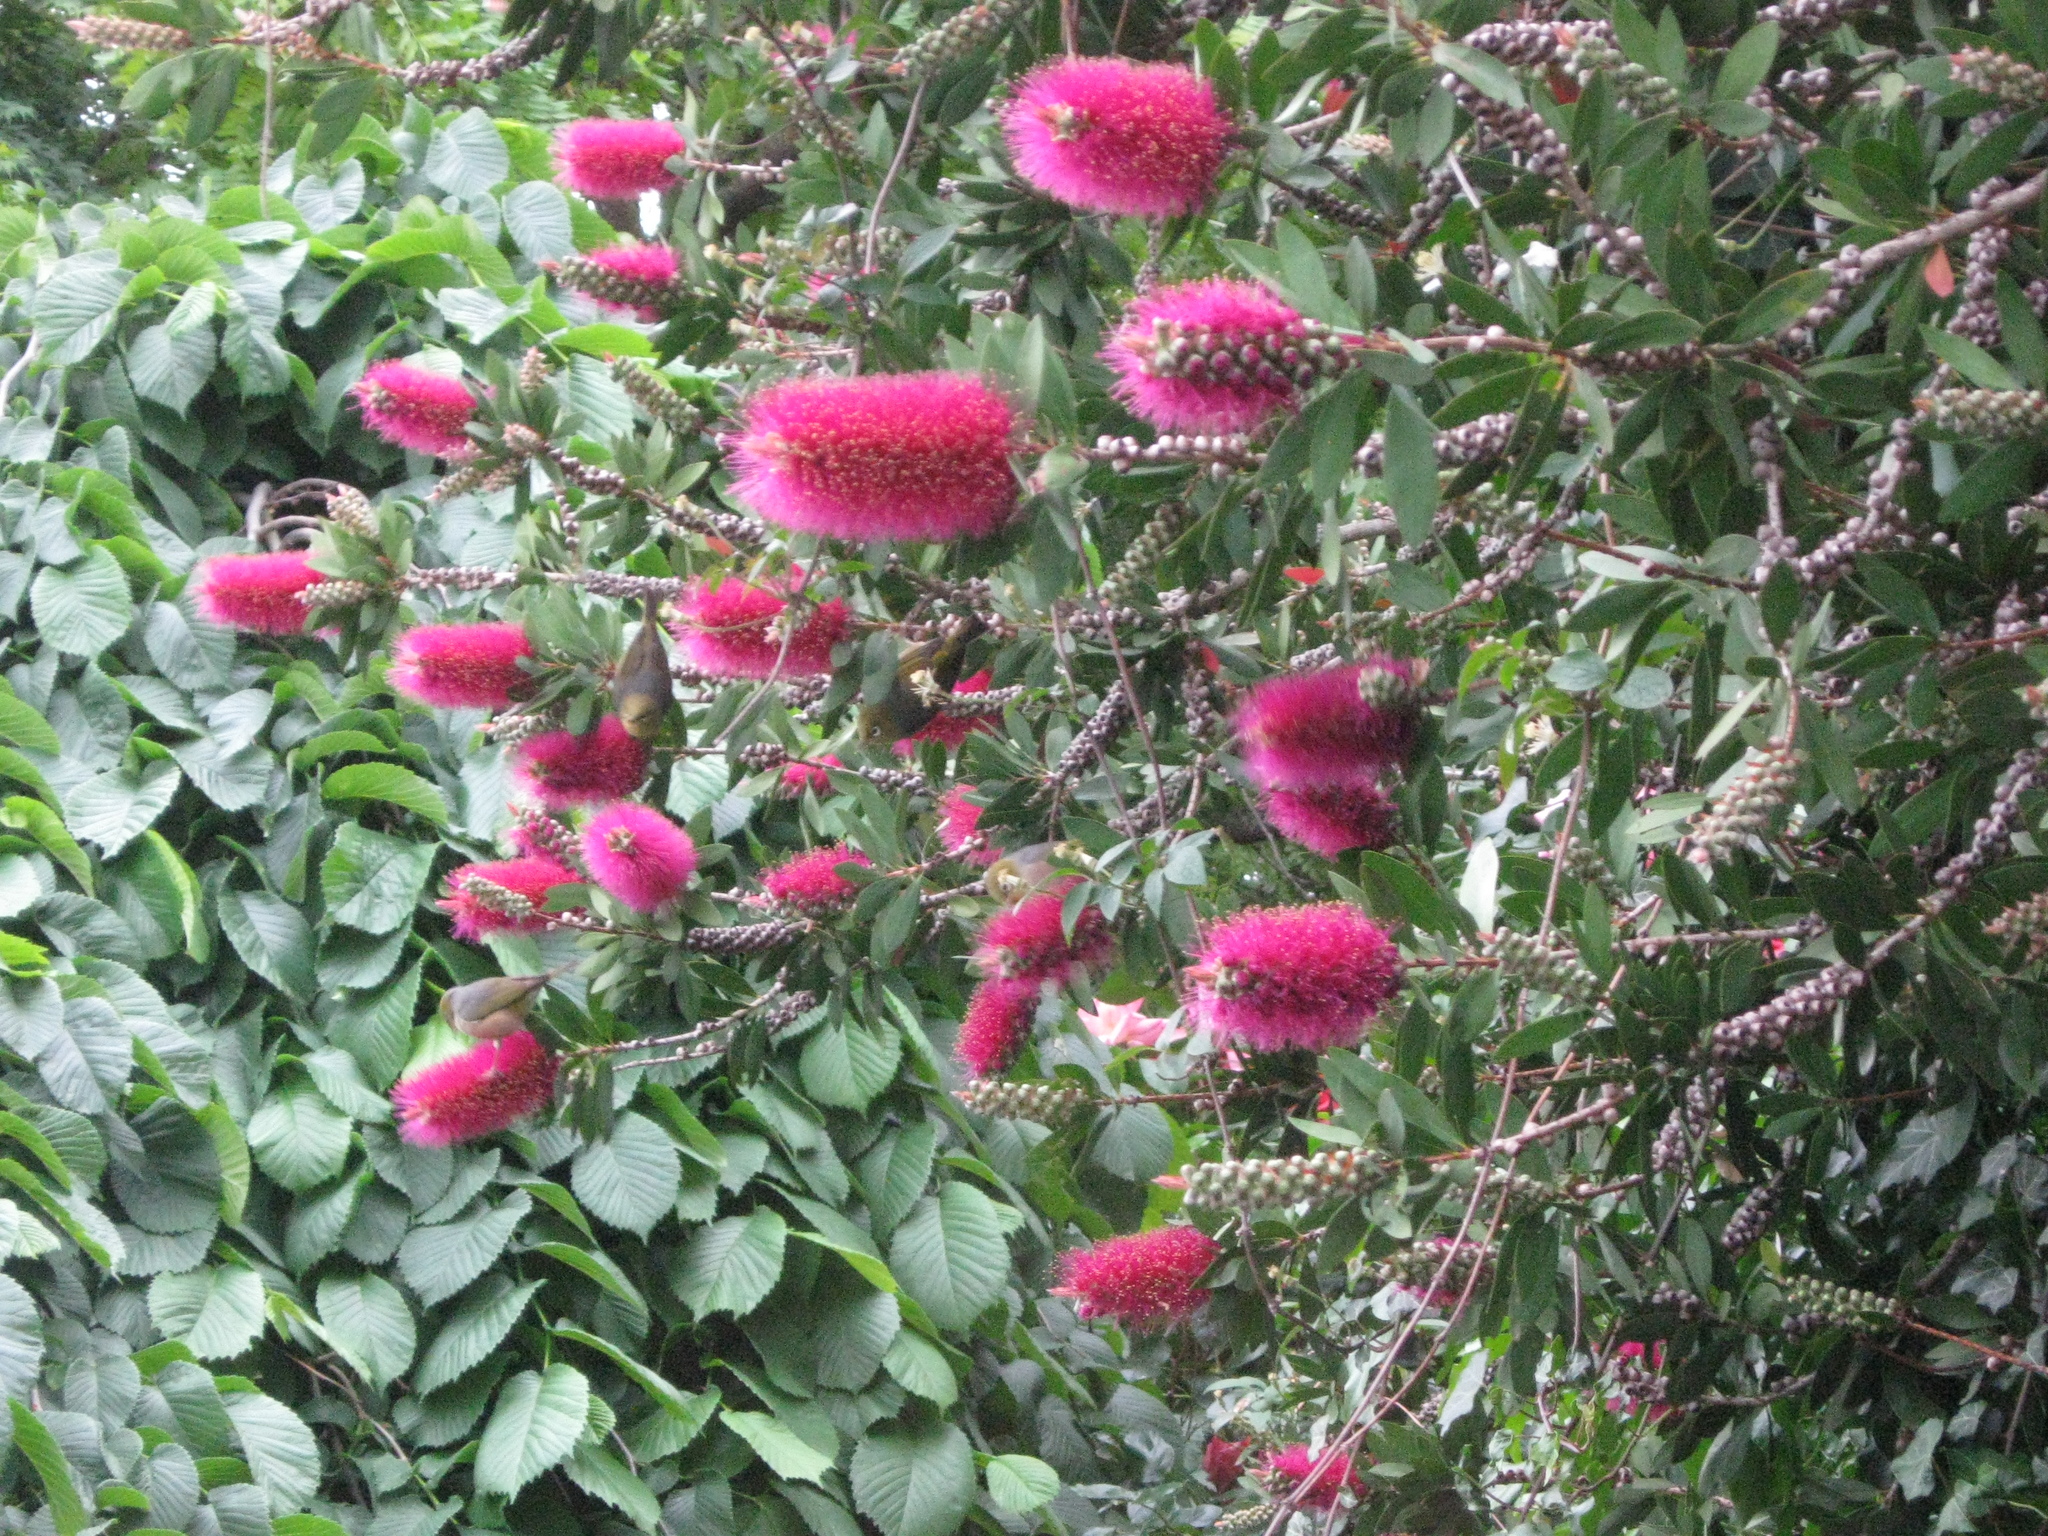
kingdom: Animalia
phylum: Chordata
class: Aves
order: Passeriformes
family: Zosteropidae
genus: Zosterops
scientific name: Zosterops lateralis
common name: Silvereye
